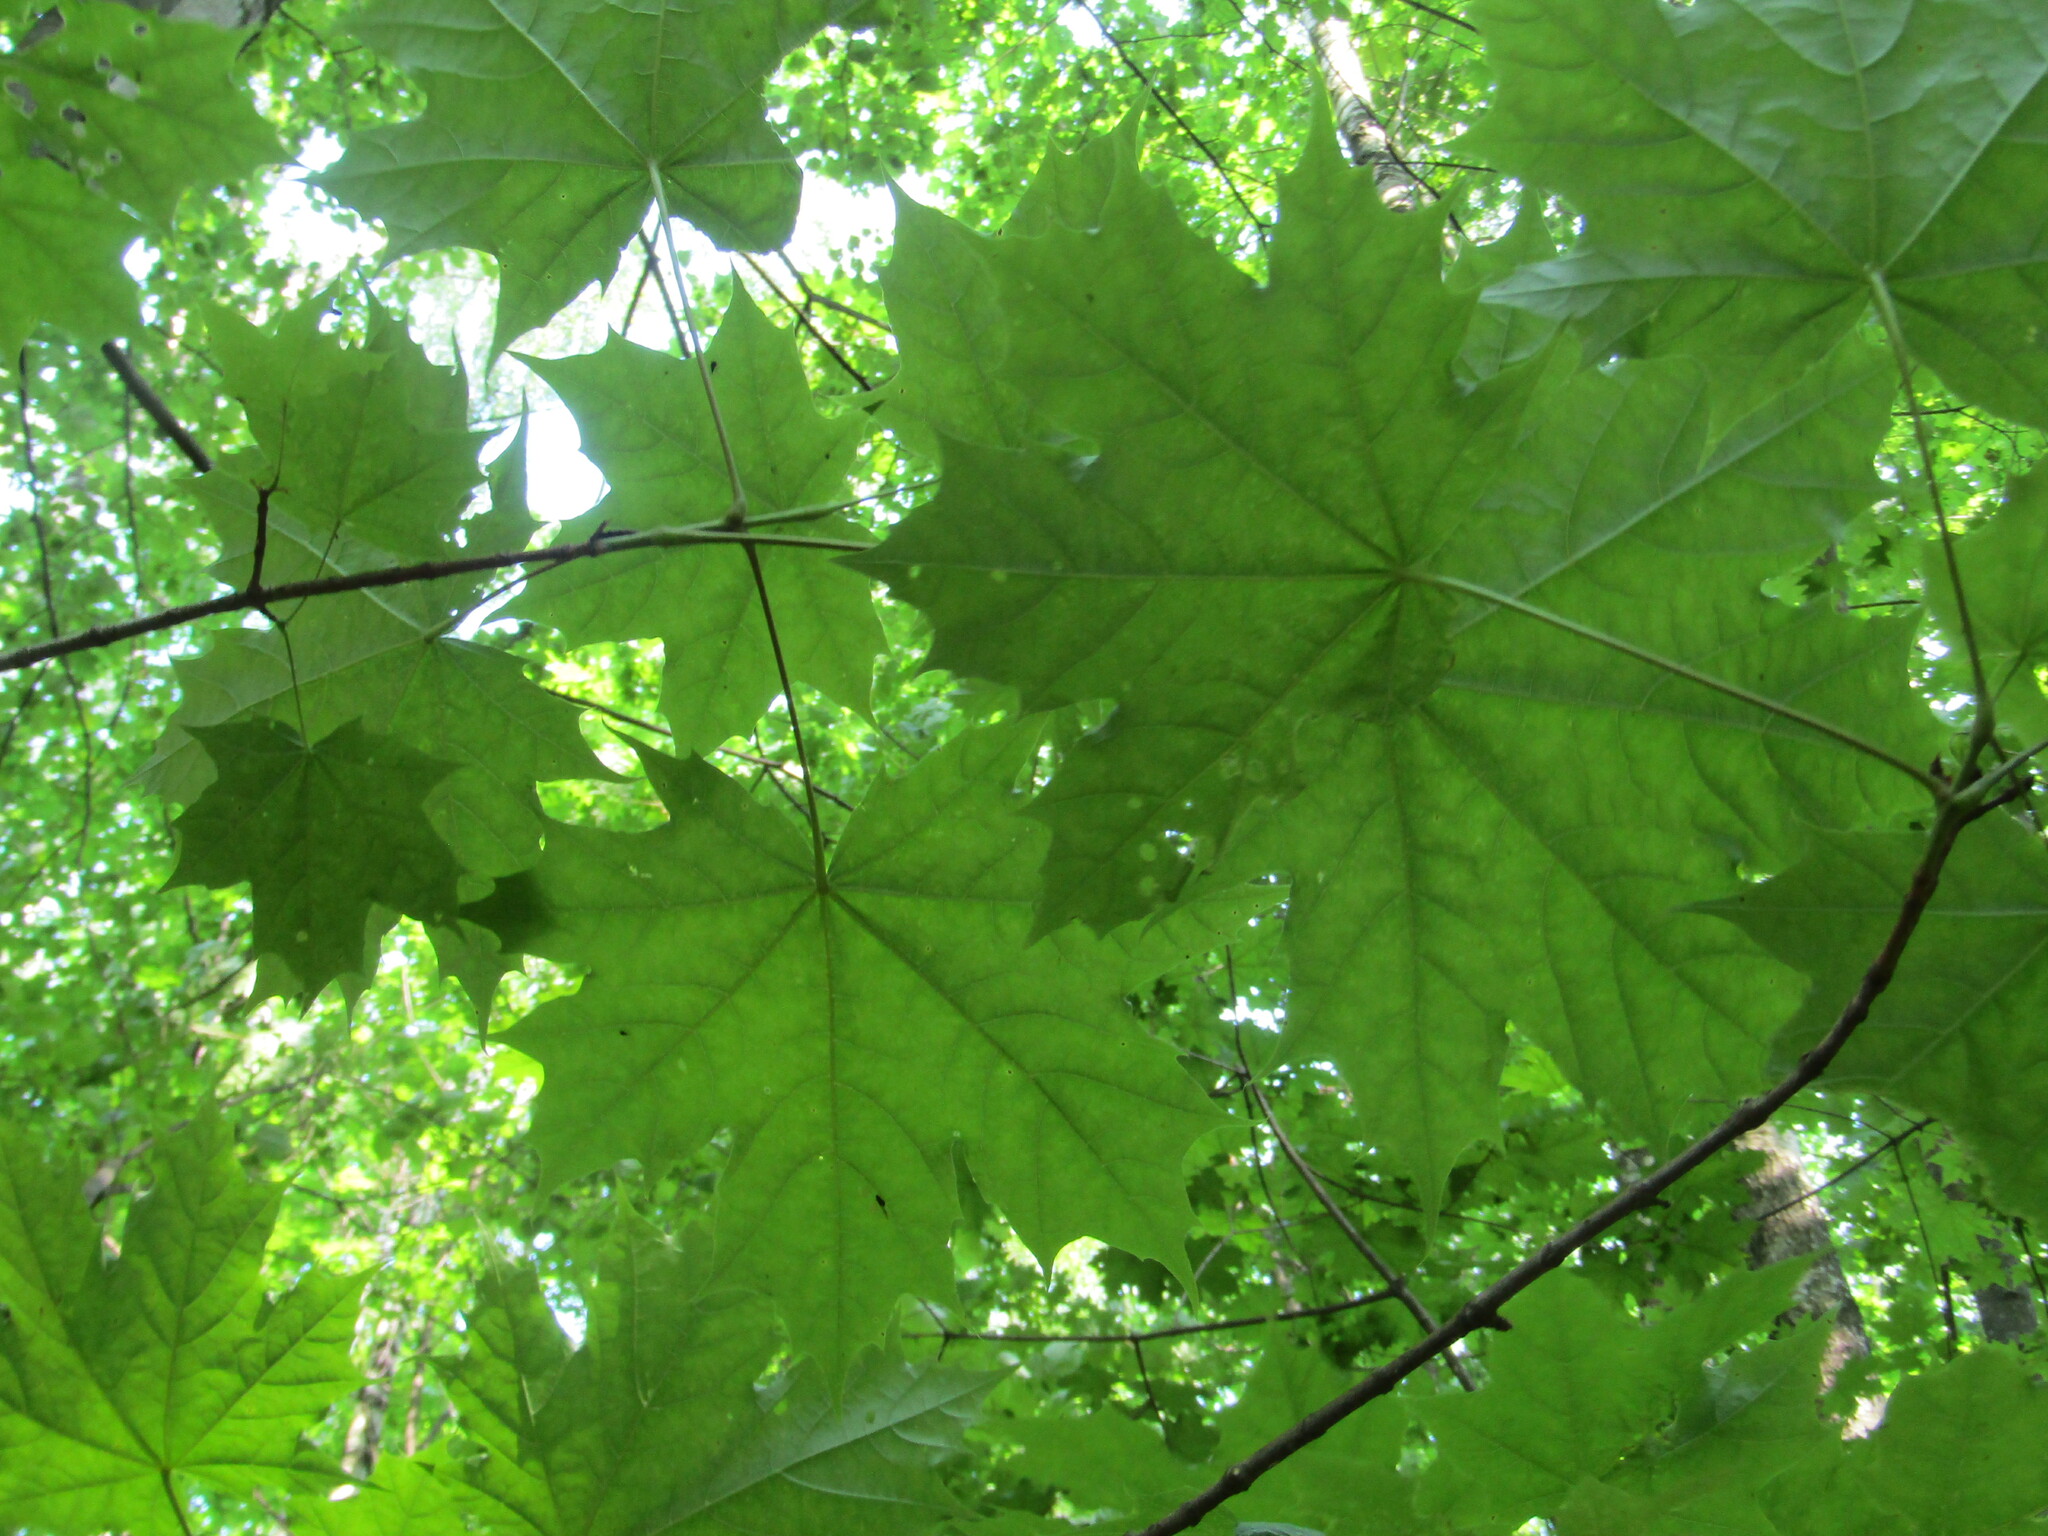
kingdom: Plantae
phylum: Tracheophyta
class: Magnoliopsida
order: Sapindales
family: Sapindaceae
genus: Acer
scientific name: Acer platanoides
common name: Norway maple
